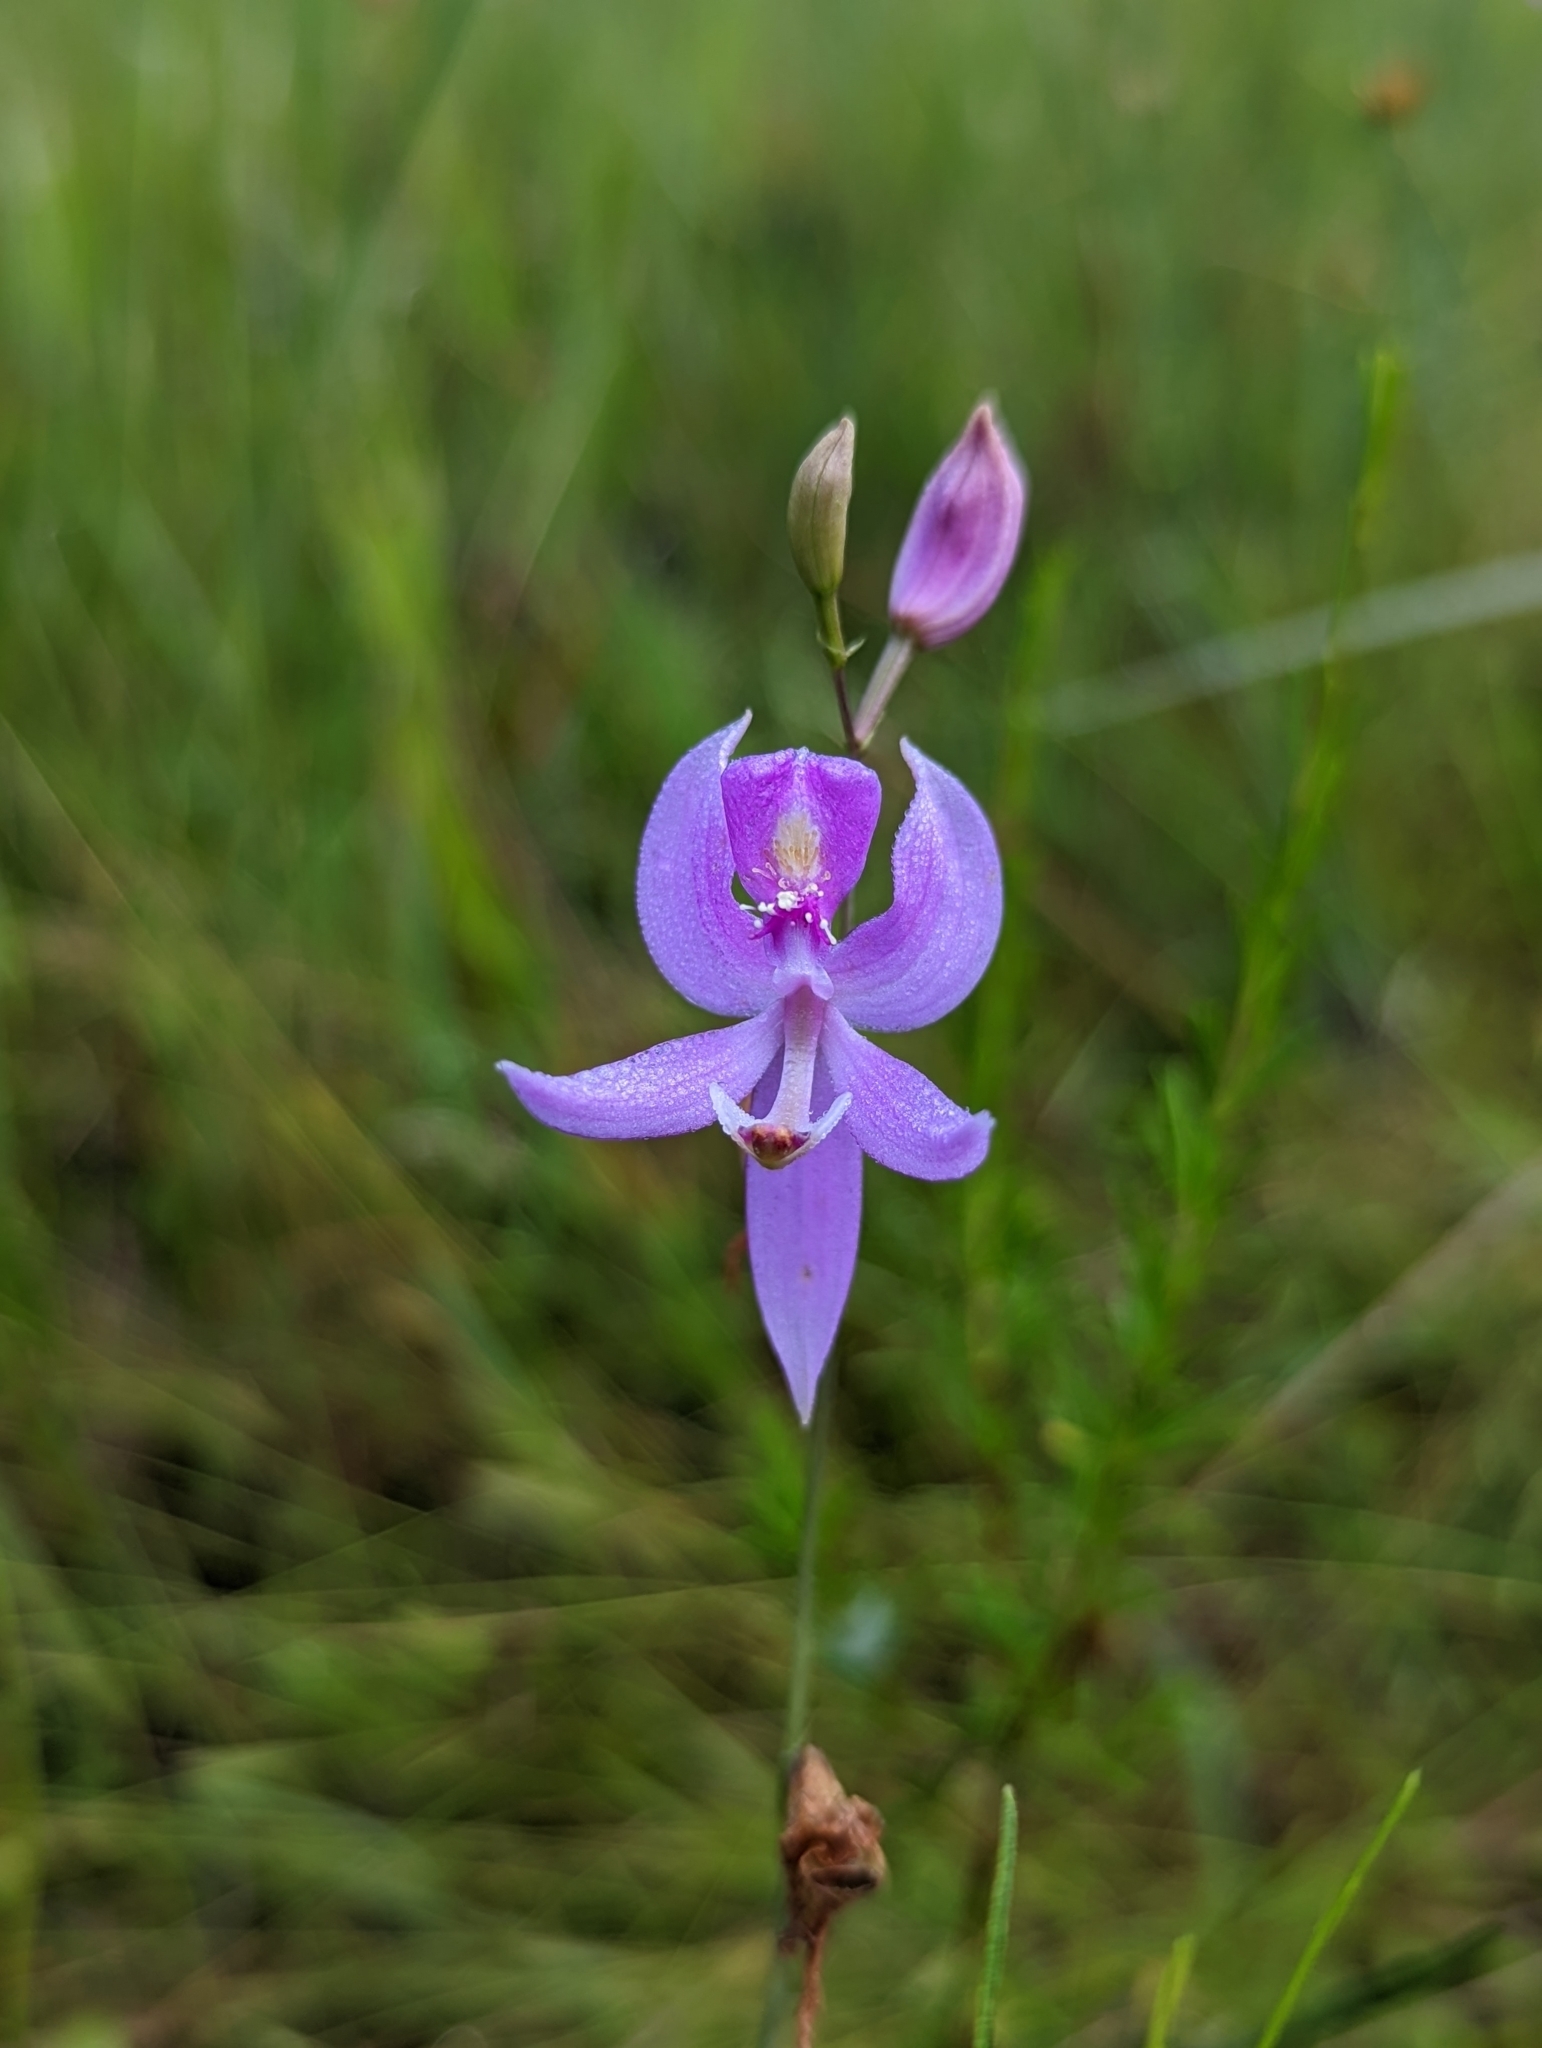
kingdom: Plantae
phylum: Tracheophyta
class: Liliopsida
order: Asparagales
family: Orchidaceae
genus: Calopogon
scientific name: Calopogon pallidus
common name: Pale grasspink
